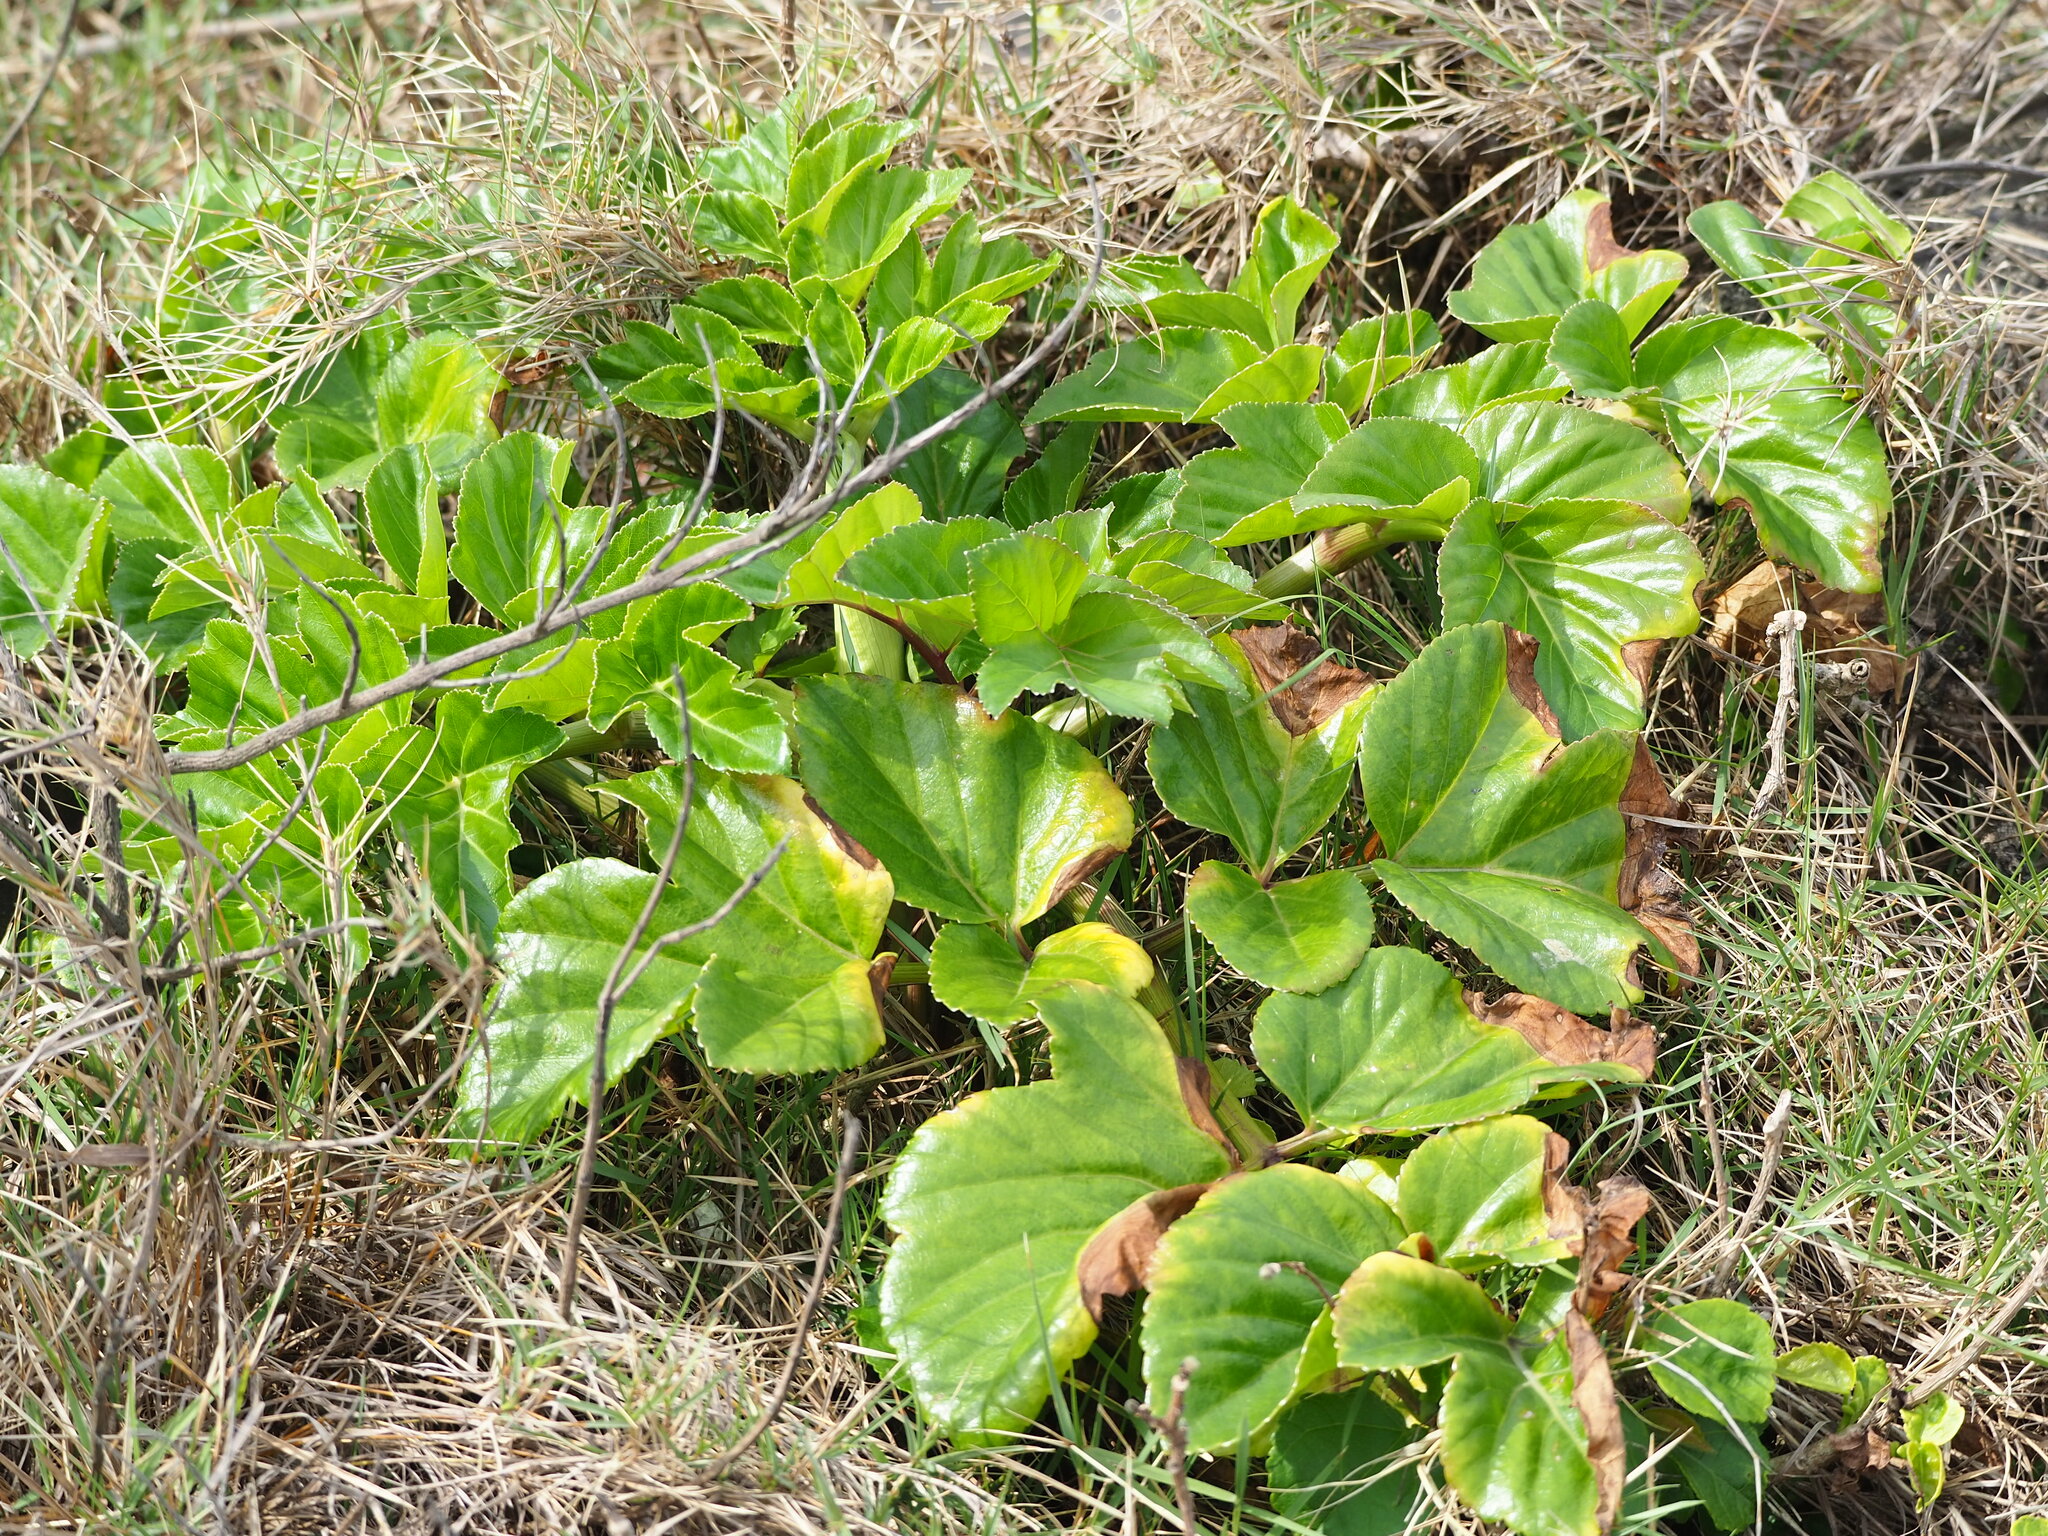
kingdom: Plantae
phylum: Tracheophyta
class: Magnoliopsida
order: Apiales
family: Apiaceae
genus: Angelica
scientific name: Angelica hirsutiflora
